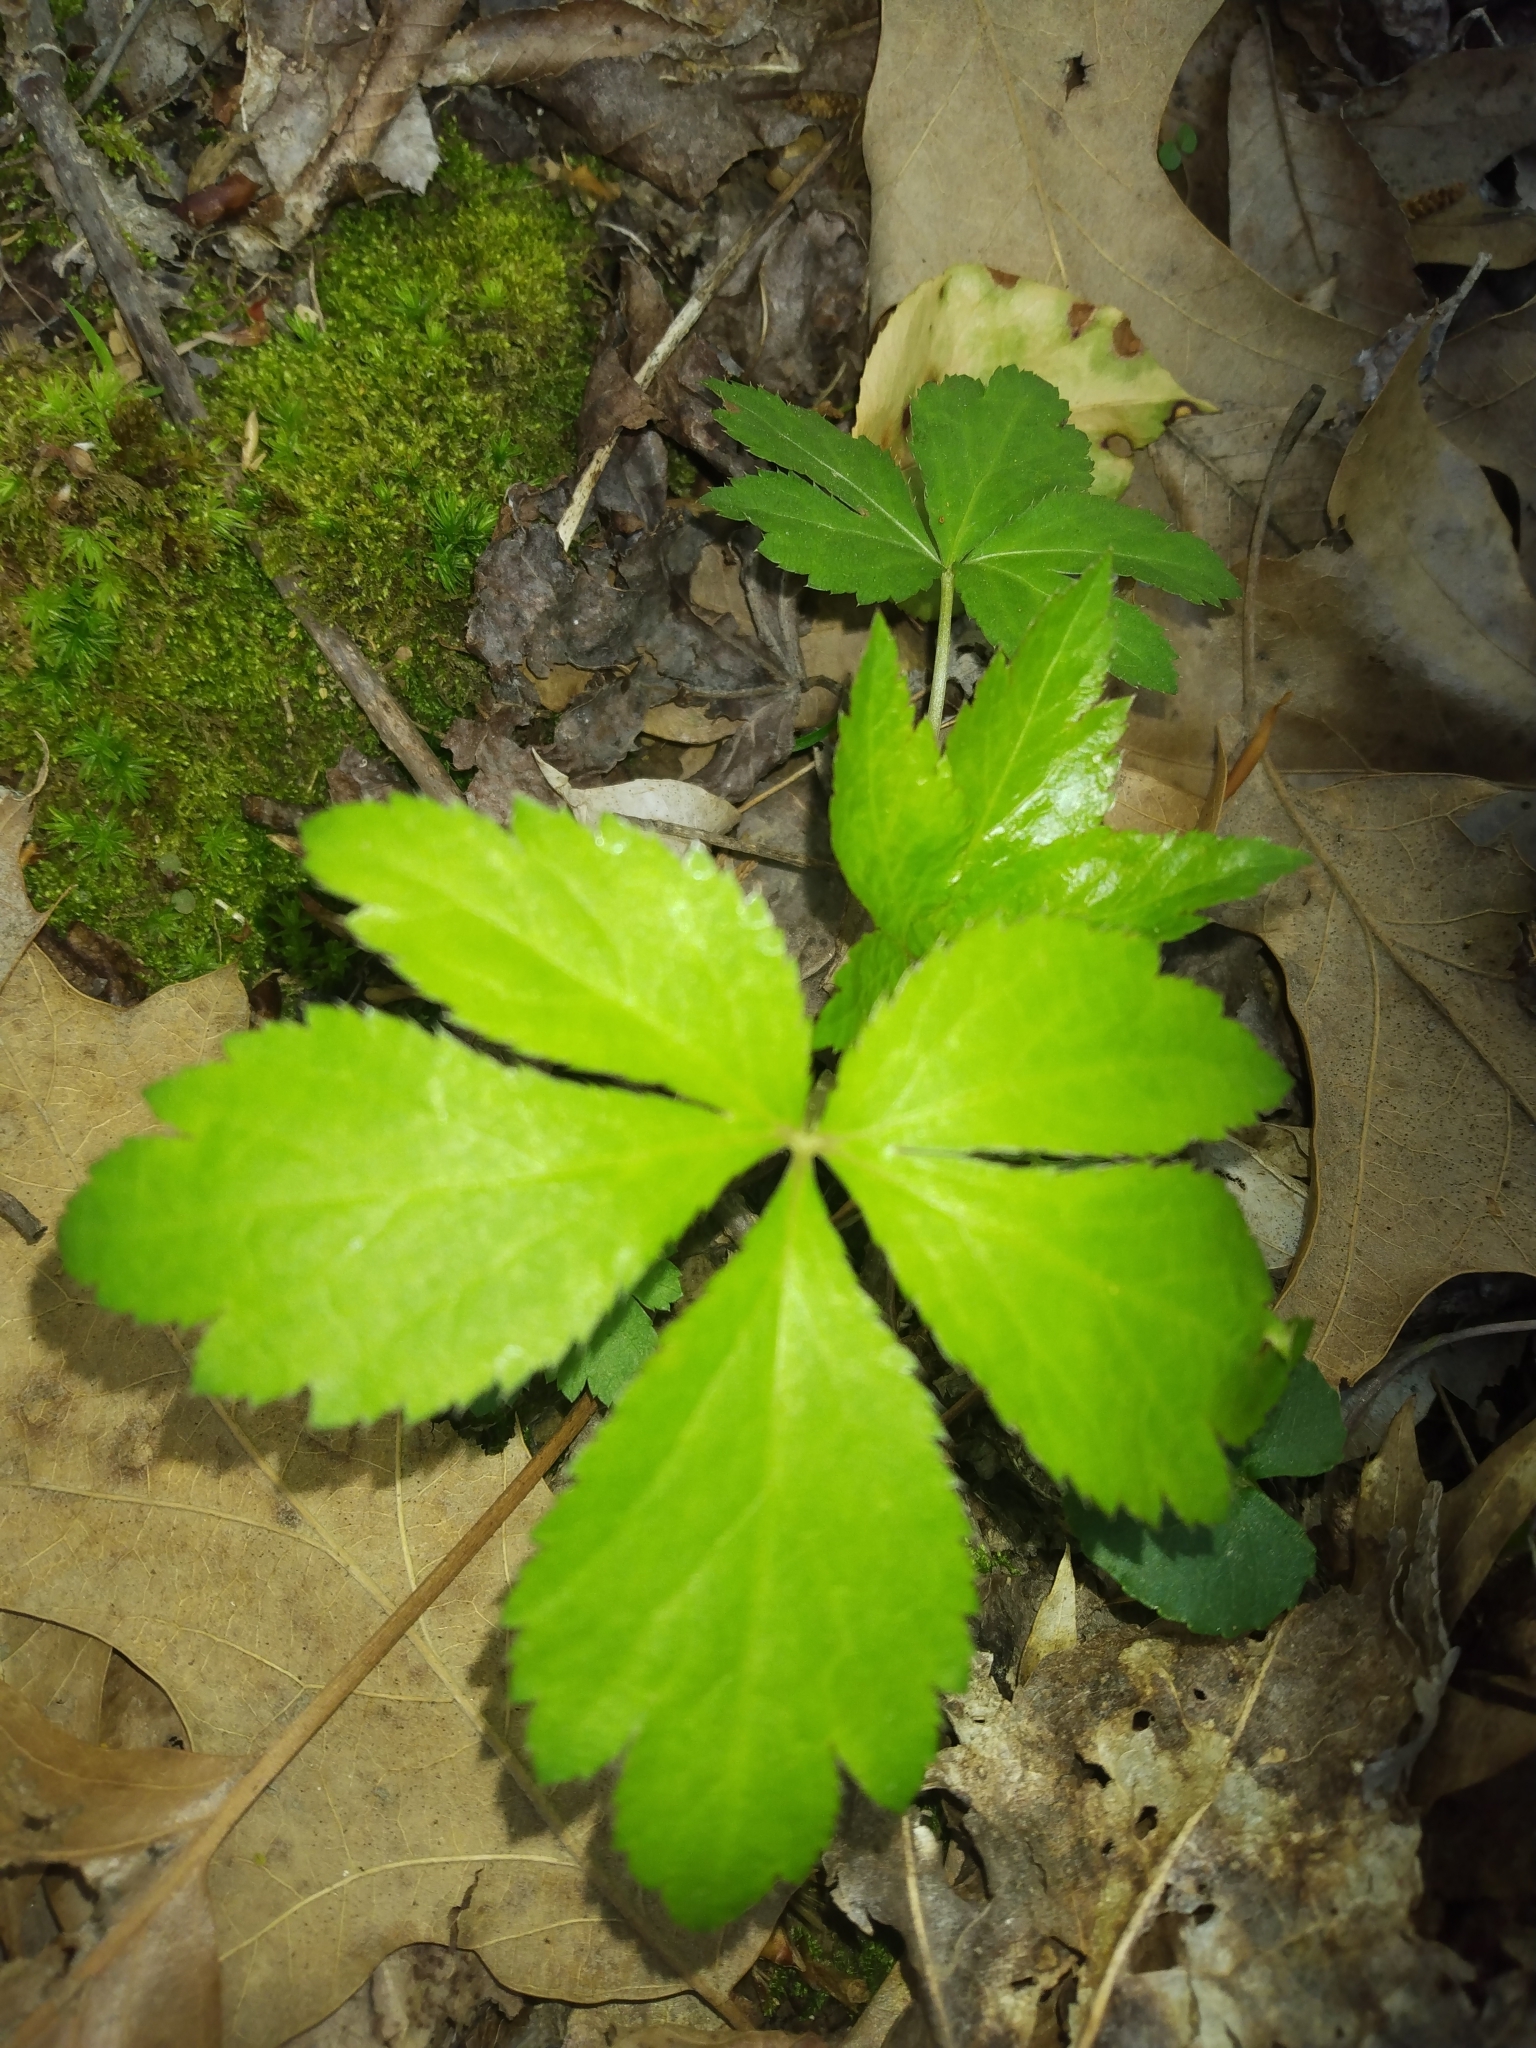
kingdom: Plantae
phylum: Tracheophyta
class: Magnoliopsida
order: Apiales
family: Apiaceae
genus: Sanicula
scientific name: Sanicula canadensis
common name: Canada sanicle
